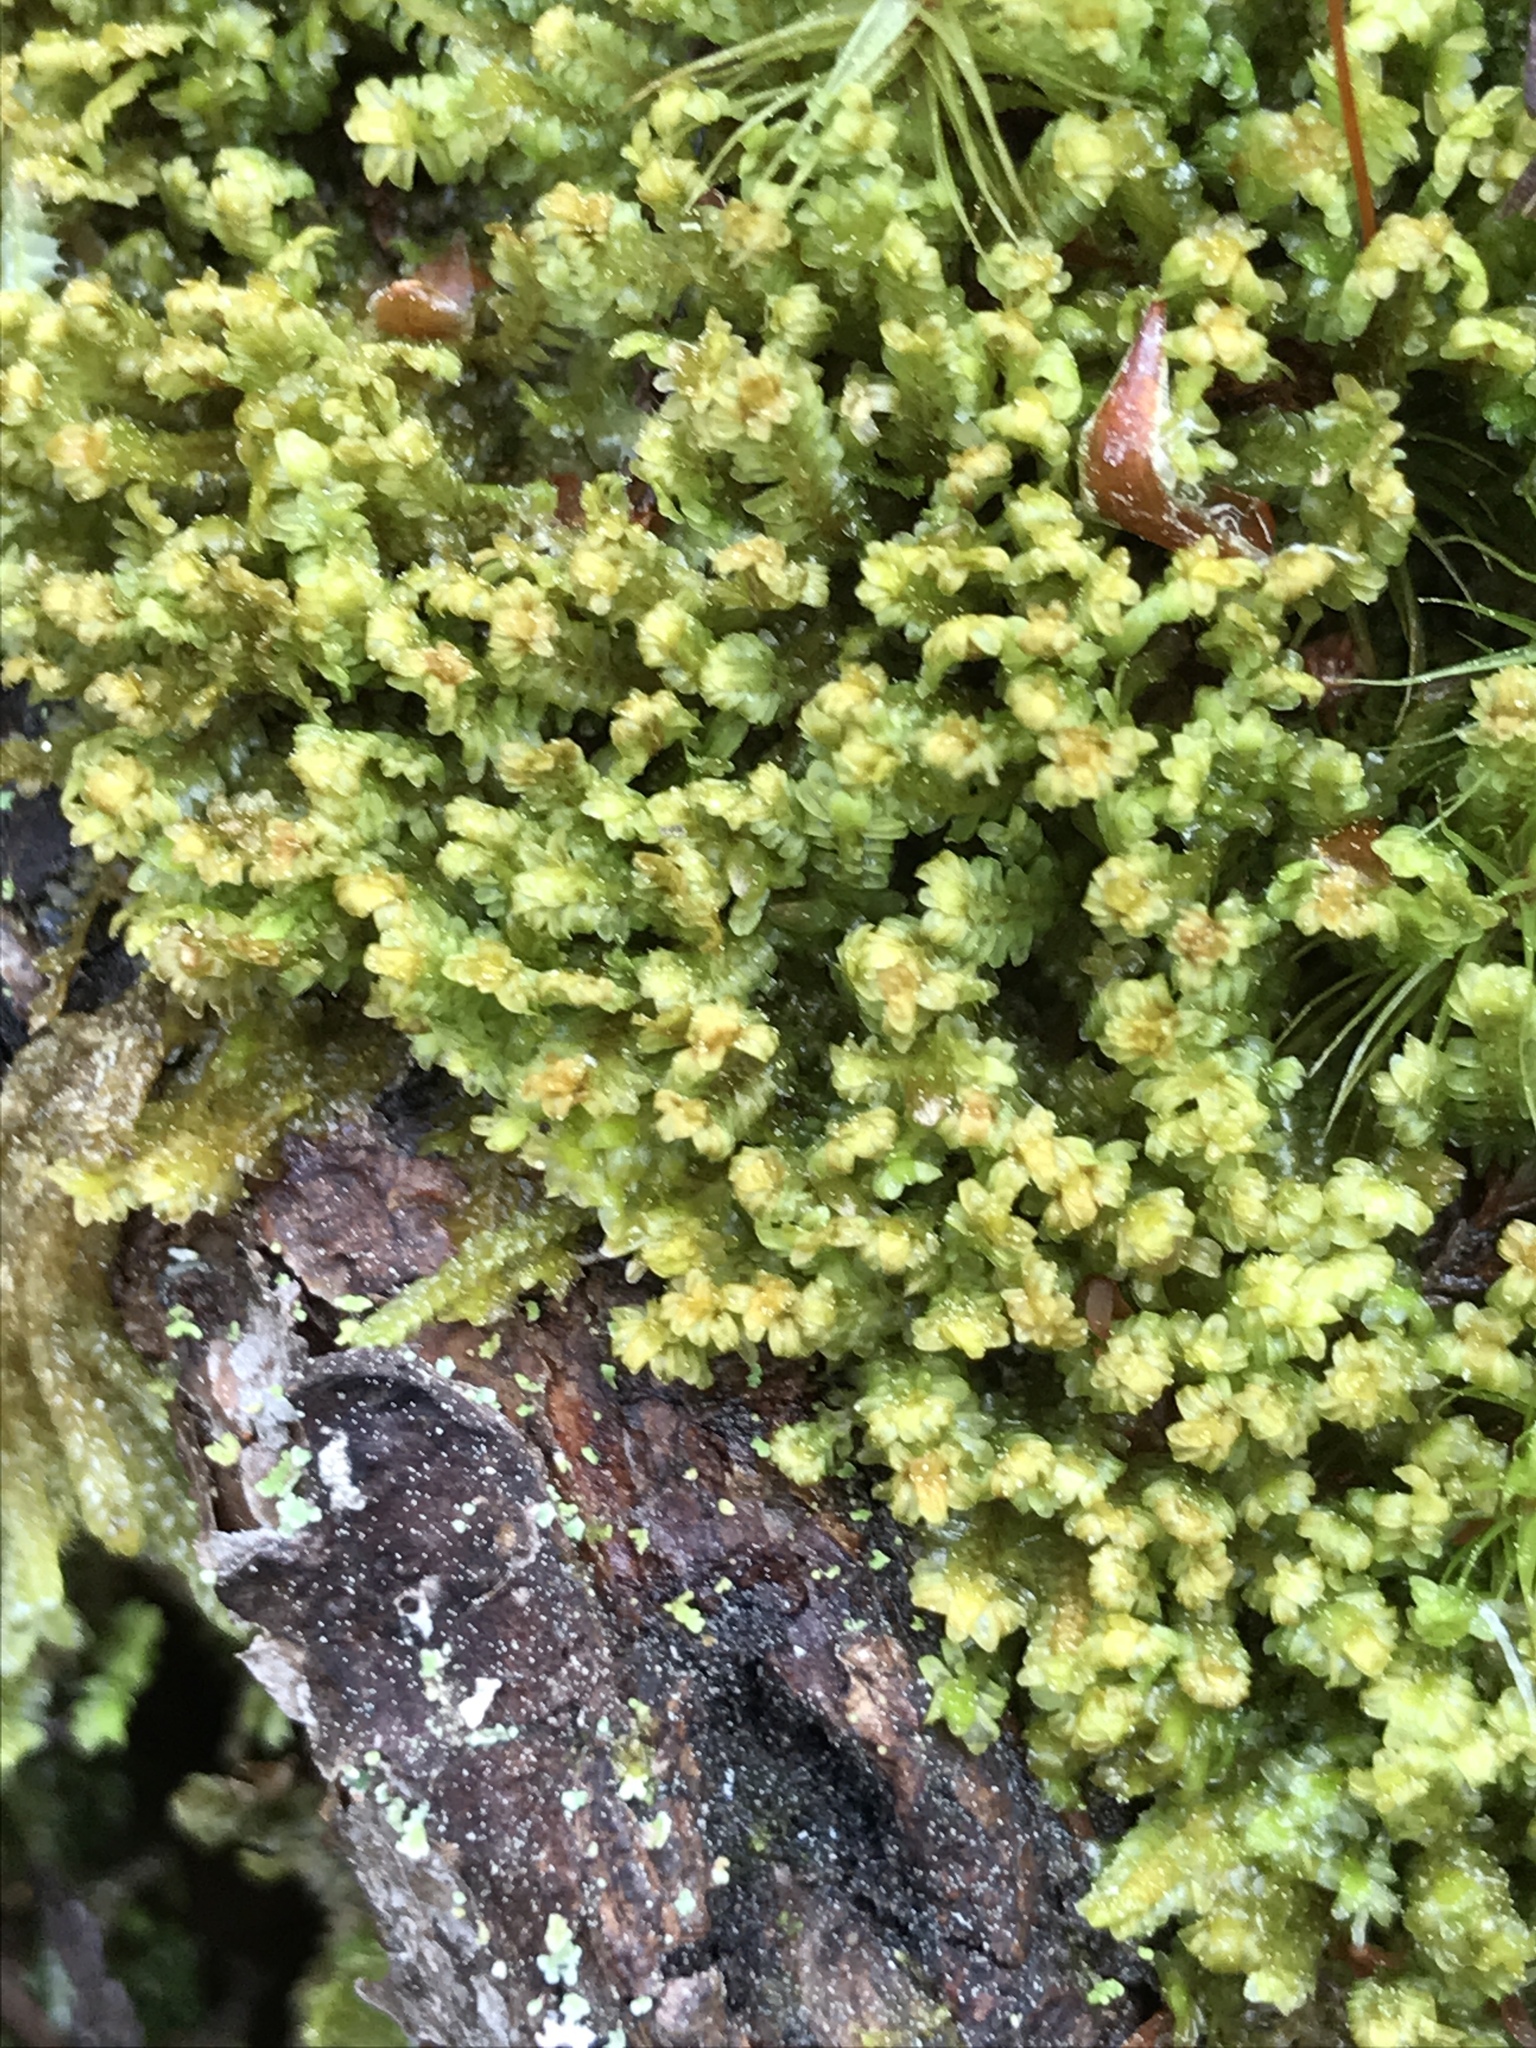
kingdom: Plantae
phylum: Marchantiophyta
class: Jungermanniopsida
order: Jungermanniales
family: Scapaniaceae
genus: Diplophyllum
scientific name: Diplophyllum albicans
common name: White earwort
